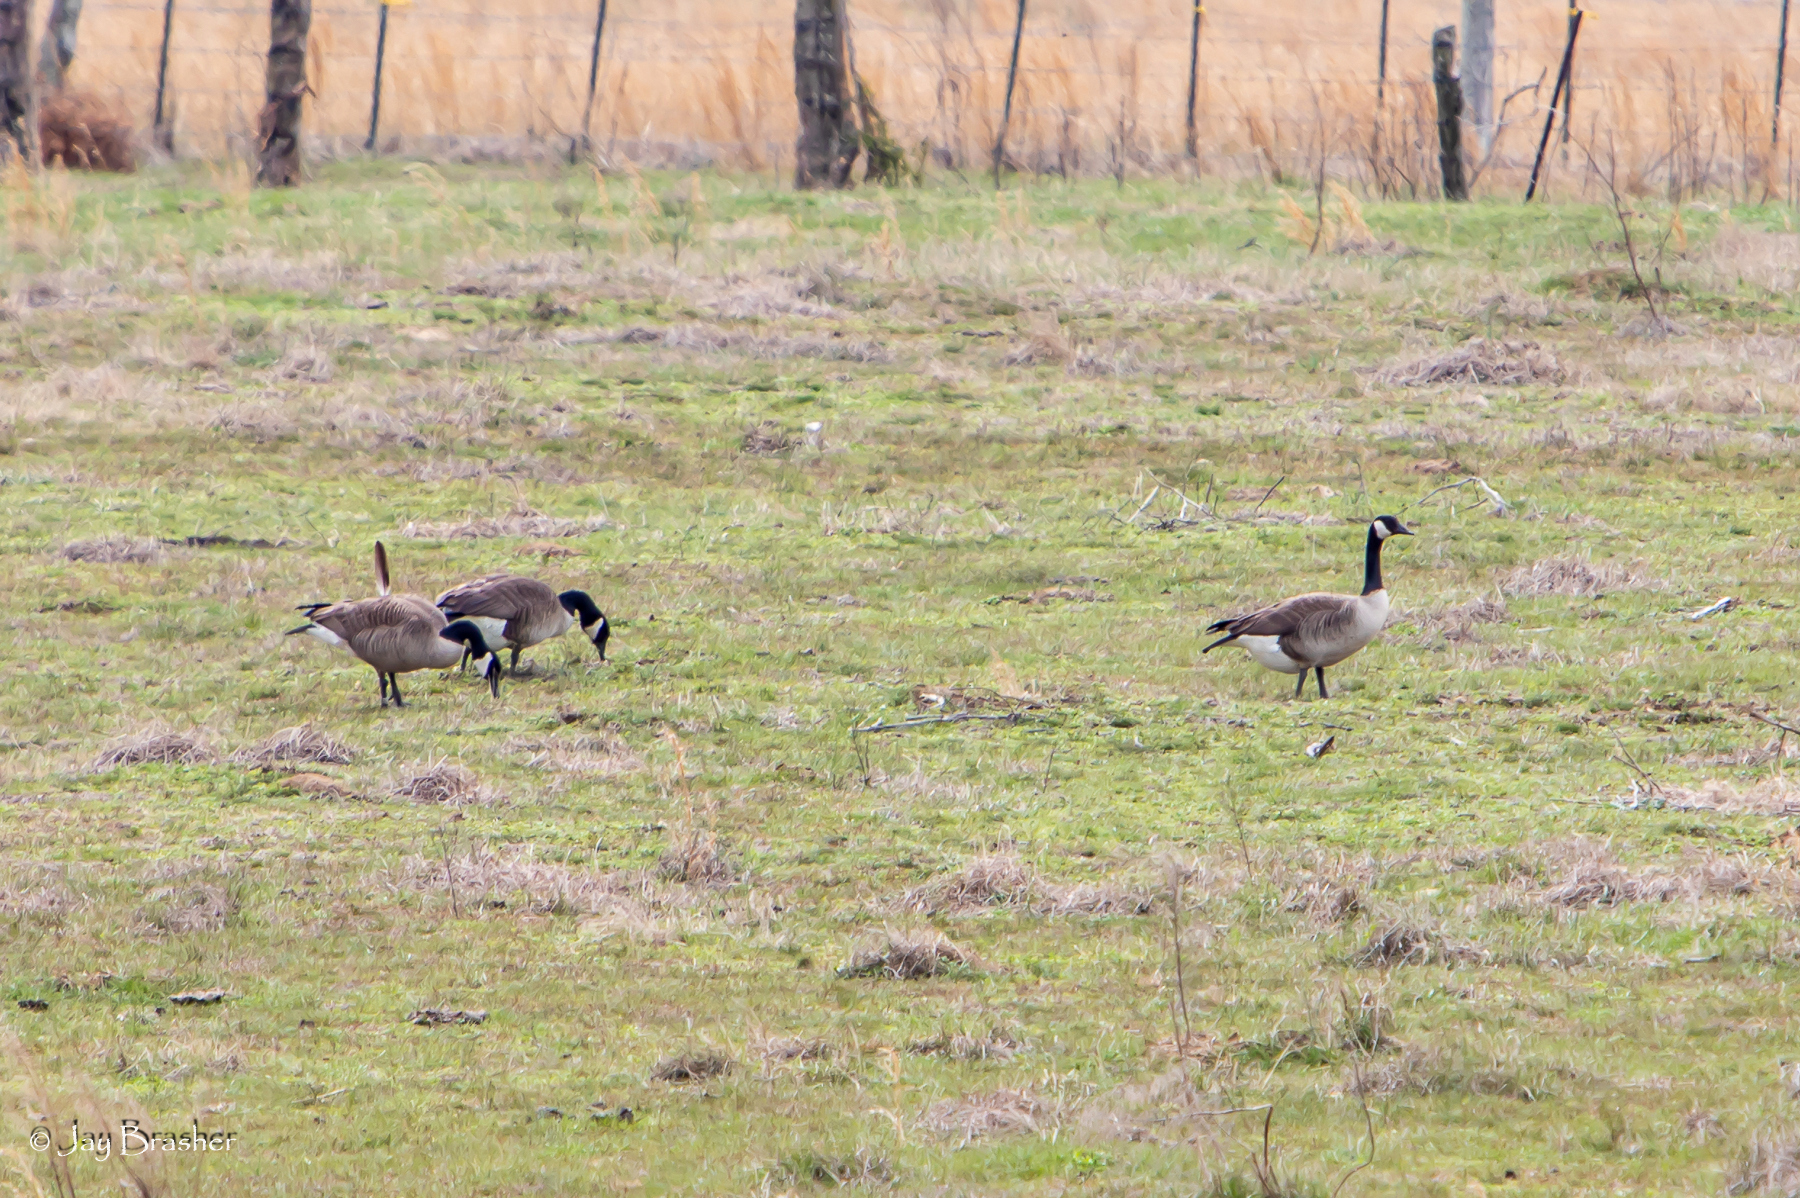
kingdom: Animalia
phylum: Chordata
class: Aves
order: Anseriformes
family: Anatidae
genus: Branta
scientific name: Branta canadensis
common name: Canada goose
